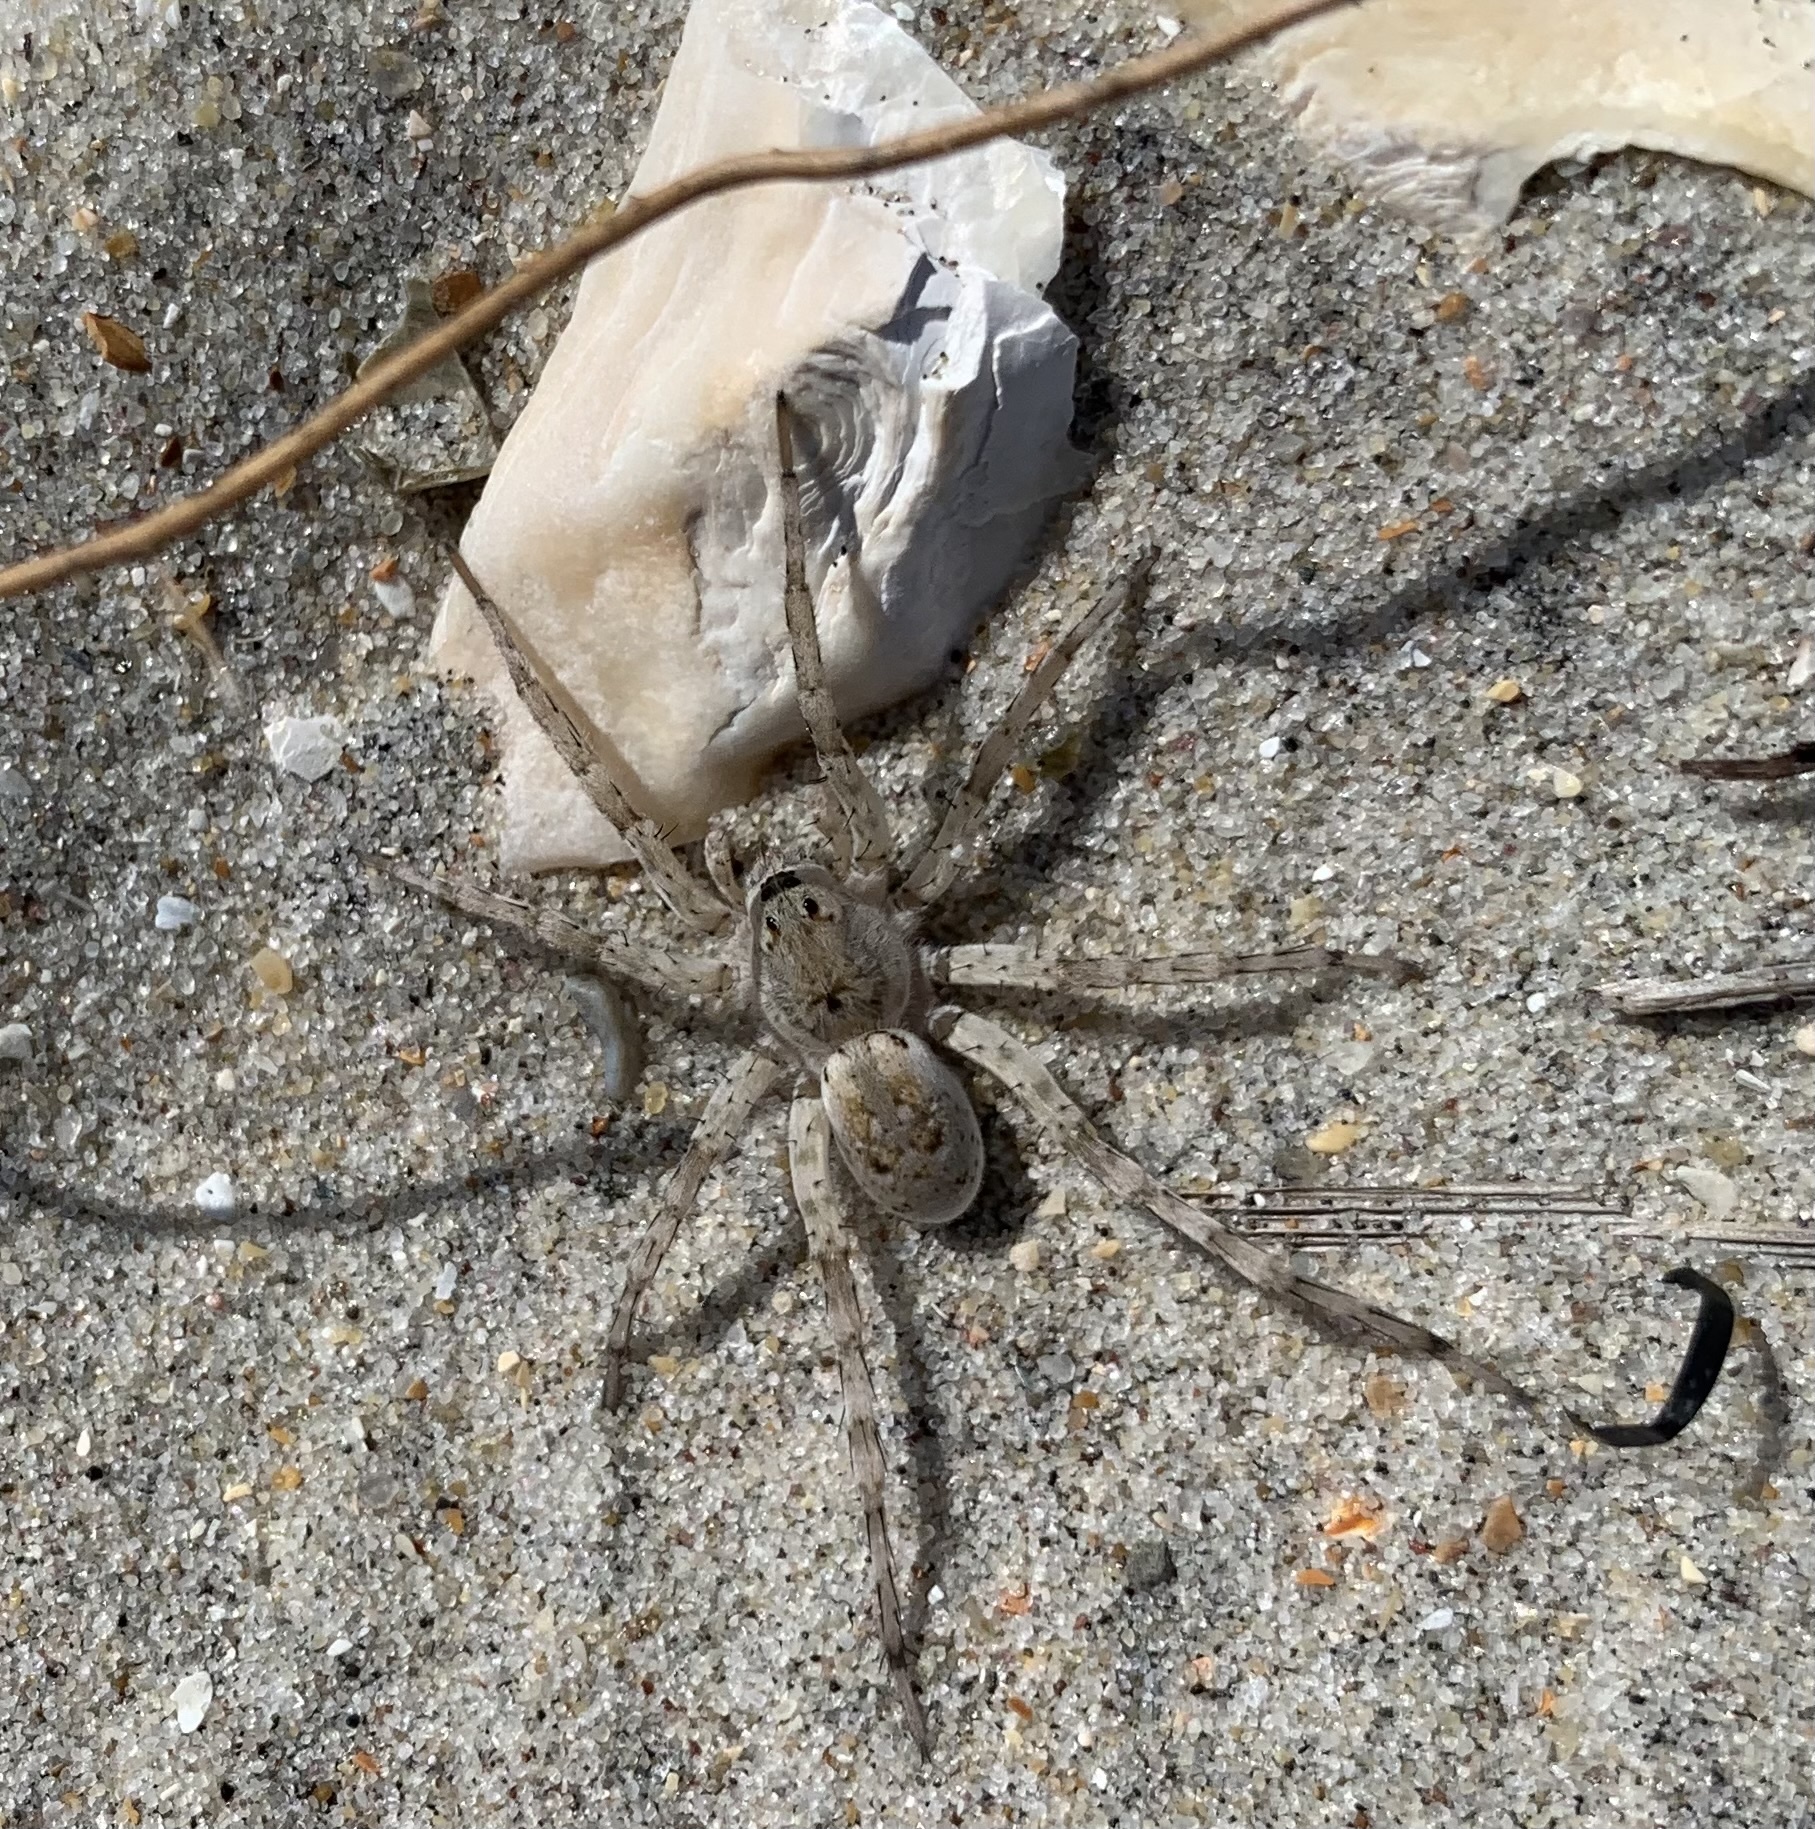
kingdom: Animalia
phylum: Arthropoda
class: Arachnida
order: Araneae
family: Lycosidae
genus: Arctosa
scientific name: Arctosa littoralis
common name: Wolf spiders
